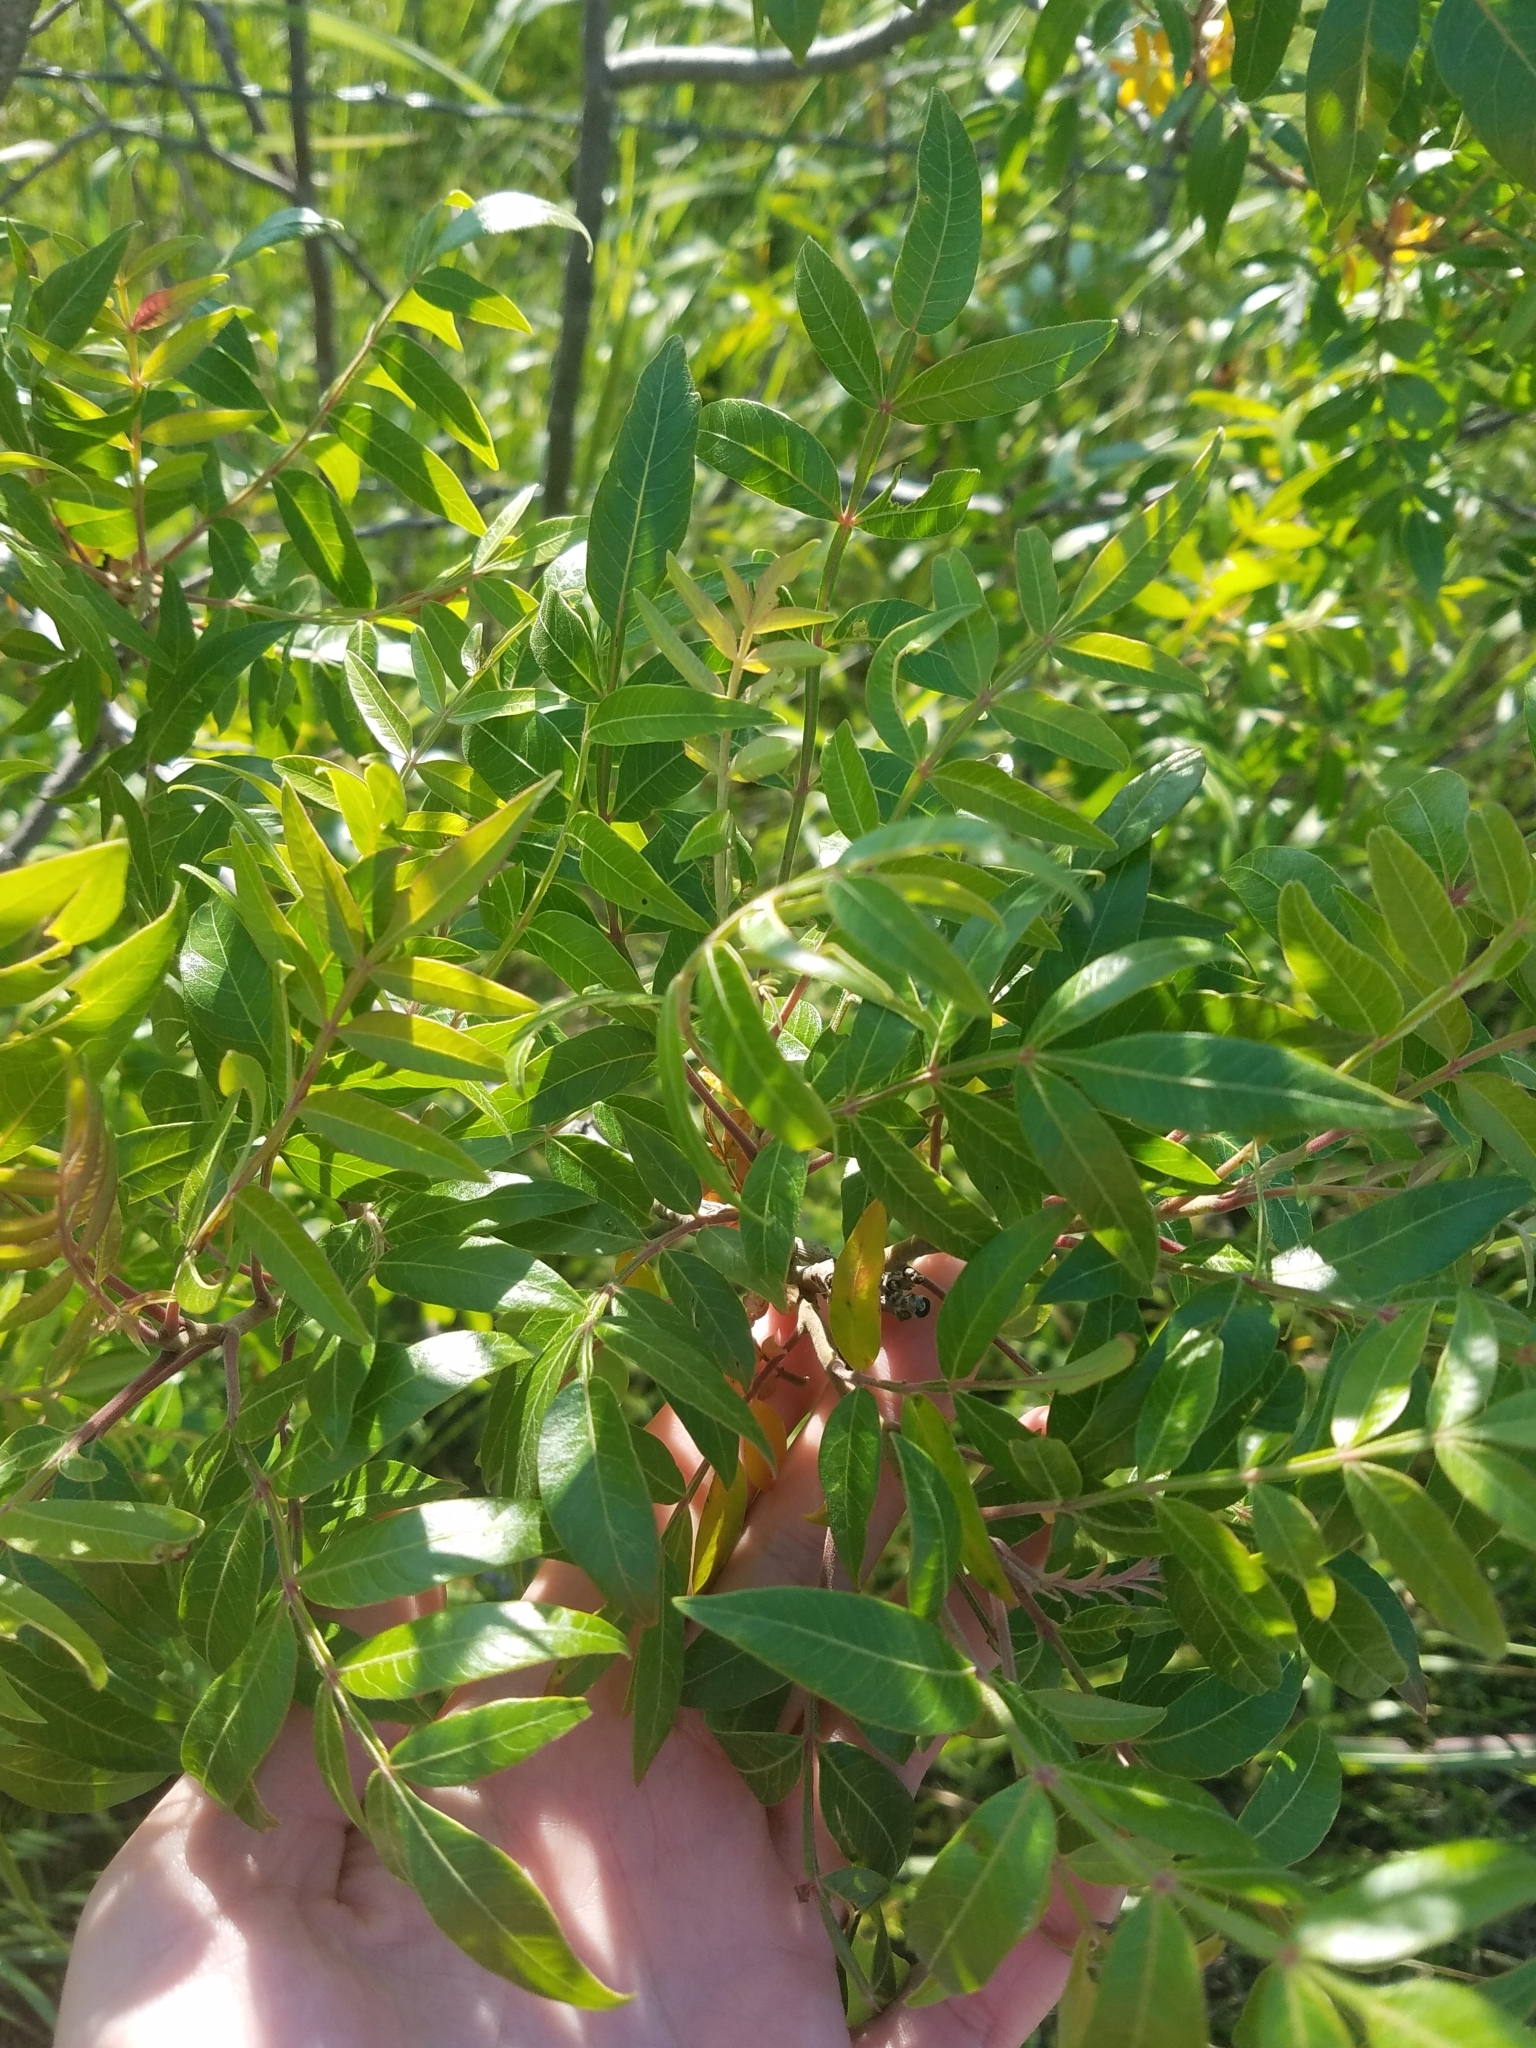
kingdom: Plantae
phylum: Tracheophyta
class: Magnoliopsida
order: Sapindales
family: Anacardiaceae
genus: Rhus
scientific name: Rhus lanceolata
